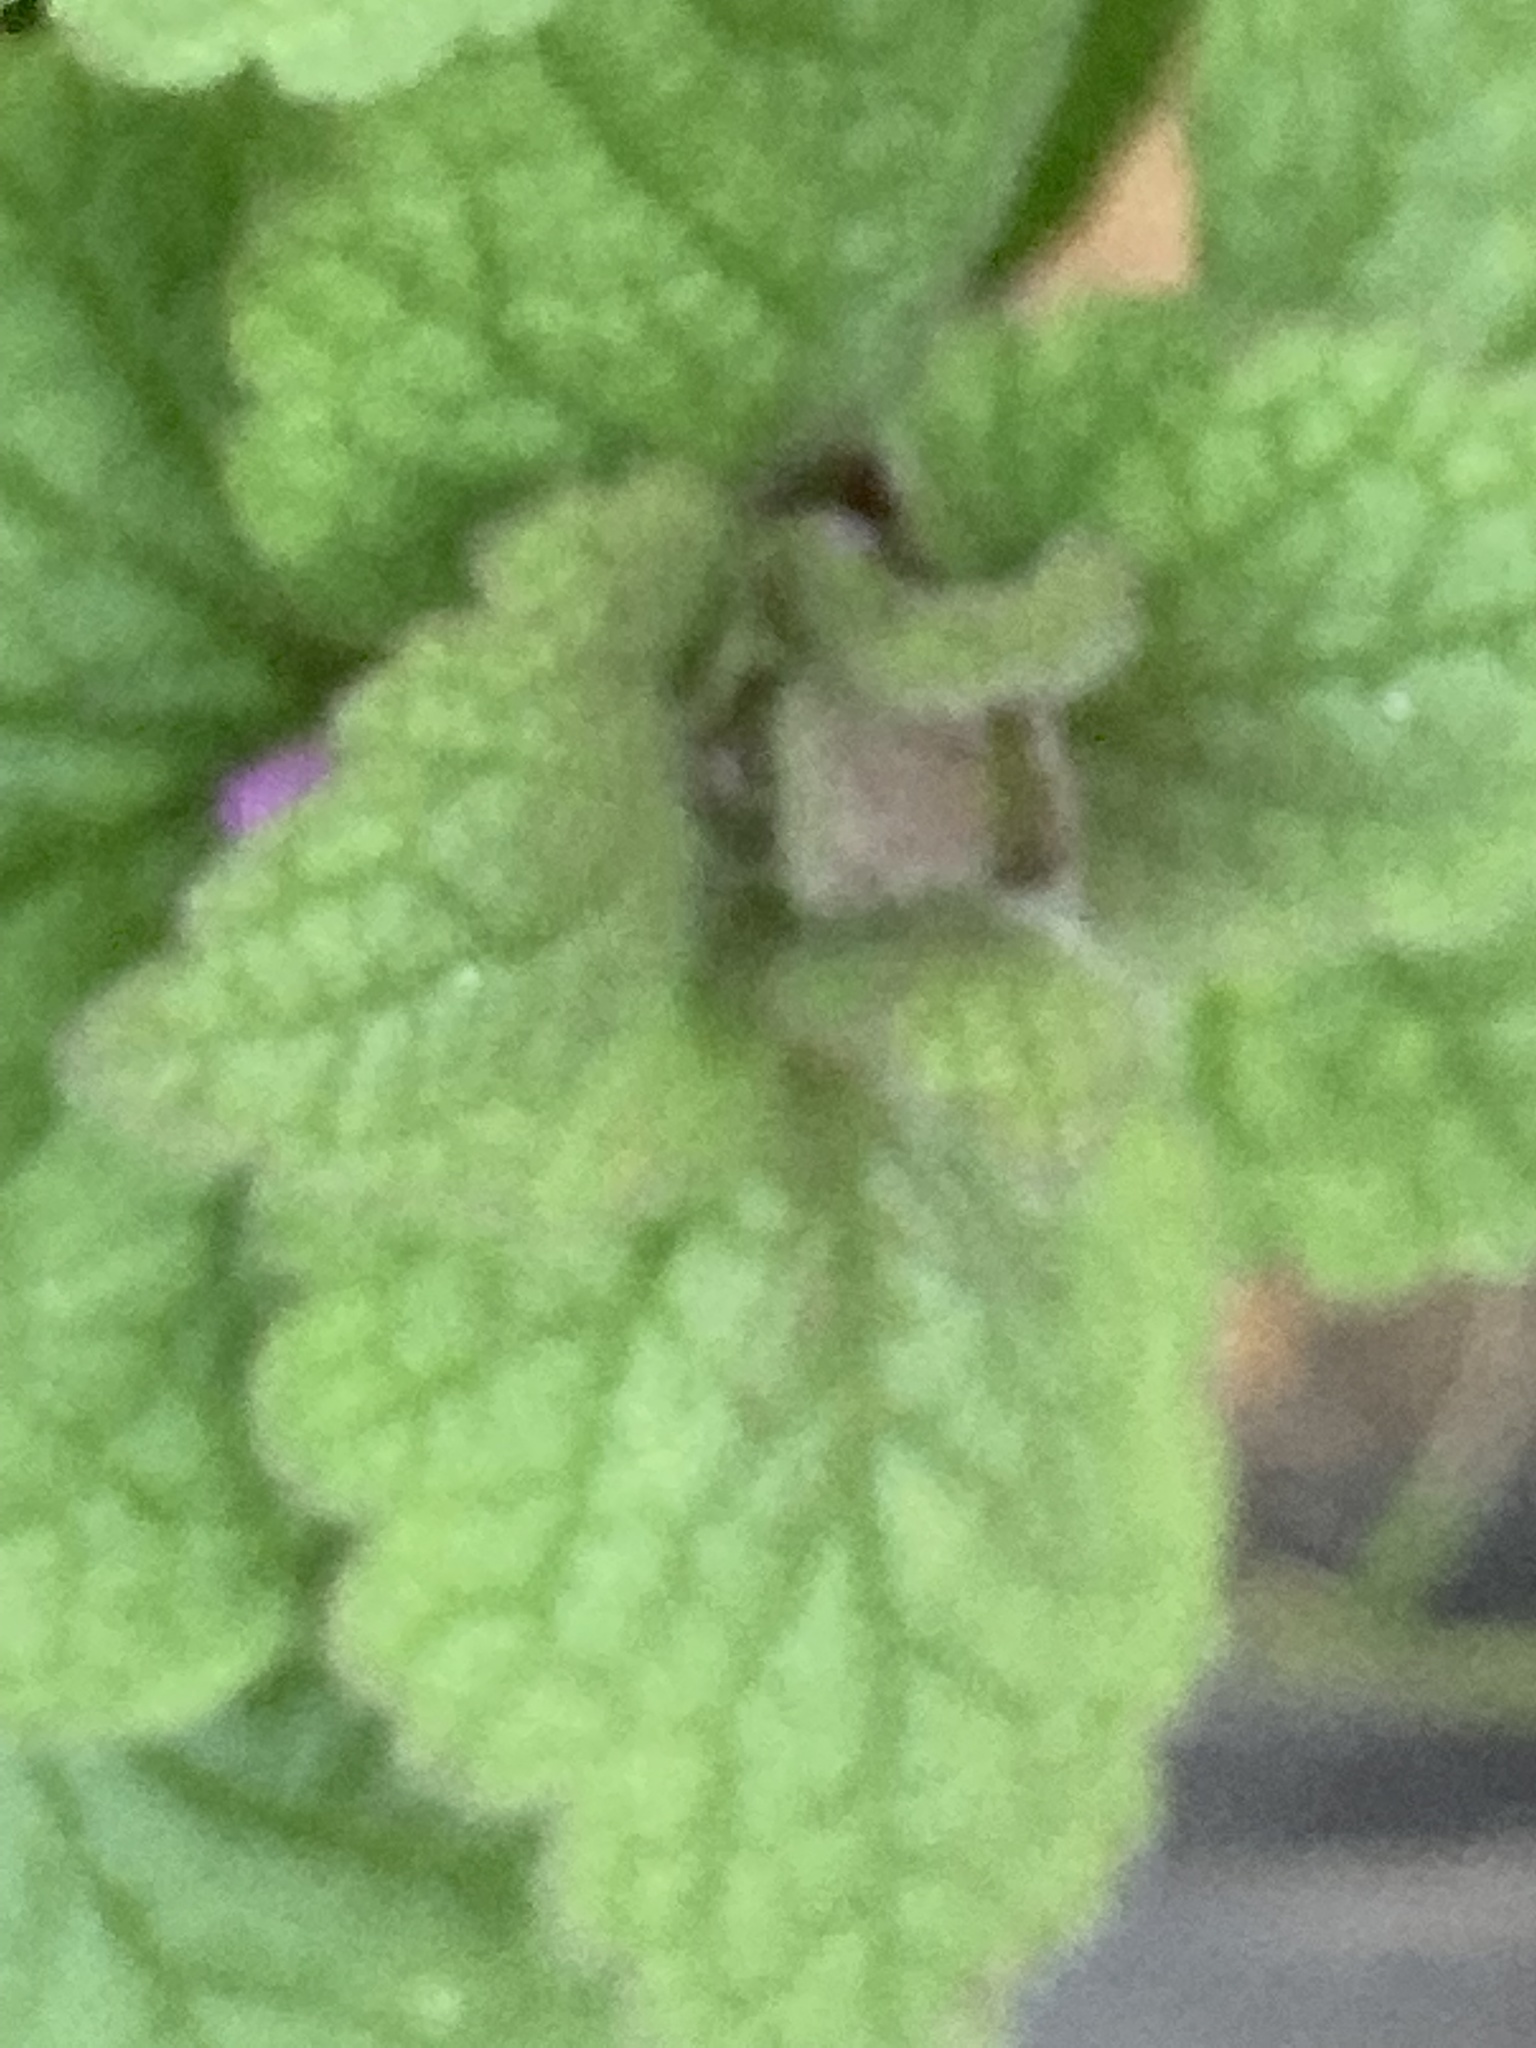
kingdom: Plantae
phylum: Tracheophyta
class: Magnoliopsida
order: Lamiales
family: Lamiaceae
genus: Lamium
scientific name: Lamium purpureum
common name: Red dead-nettle
